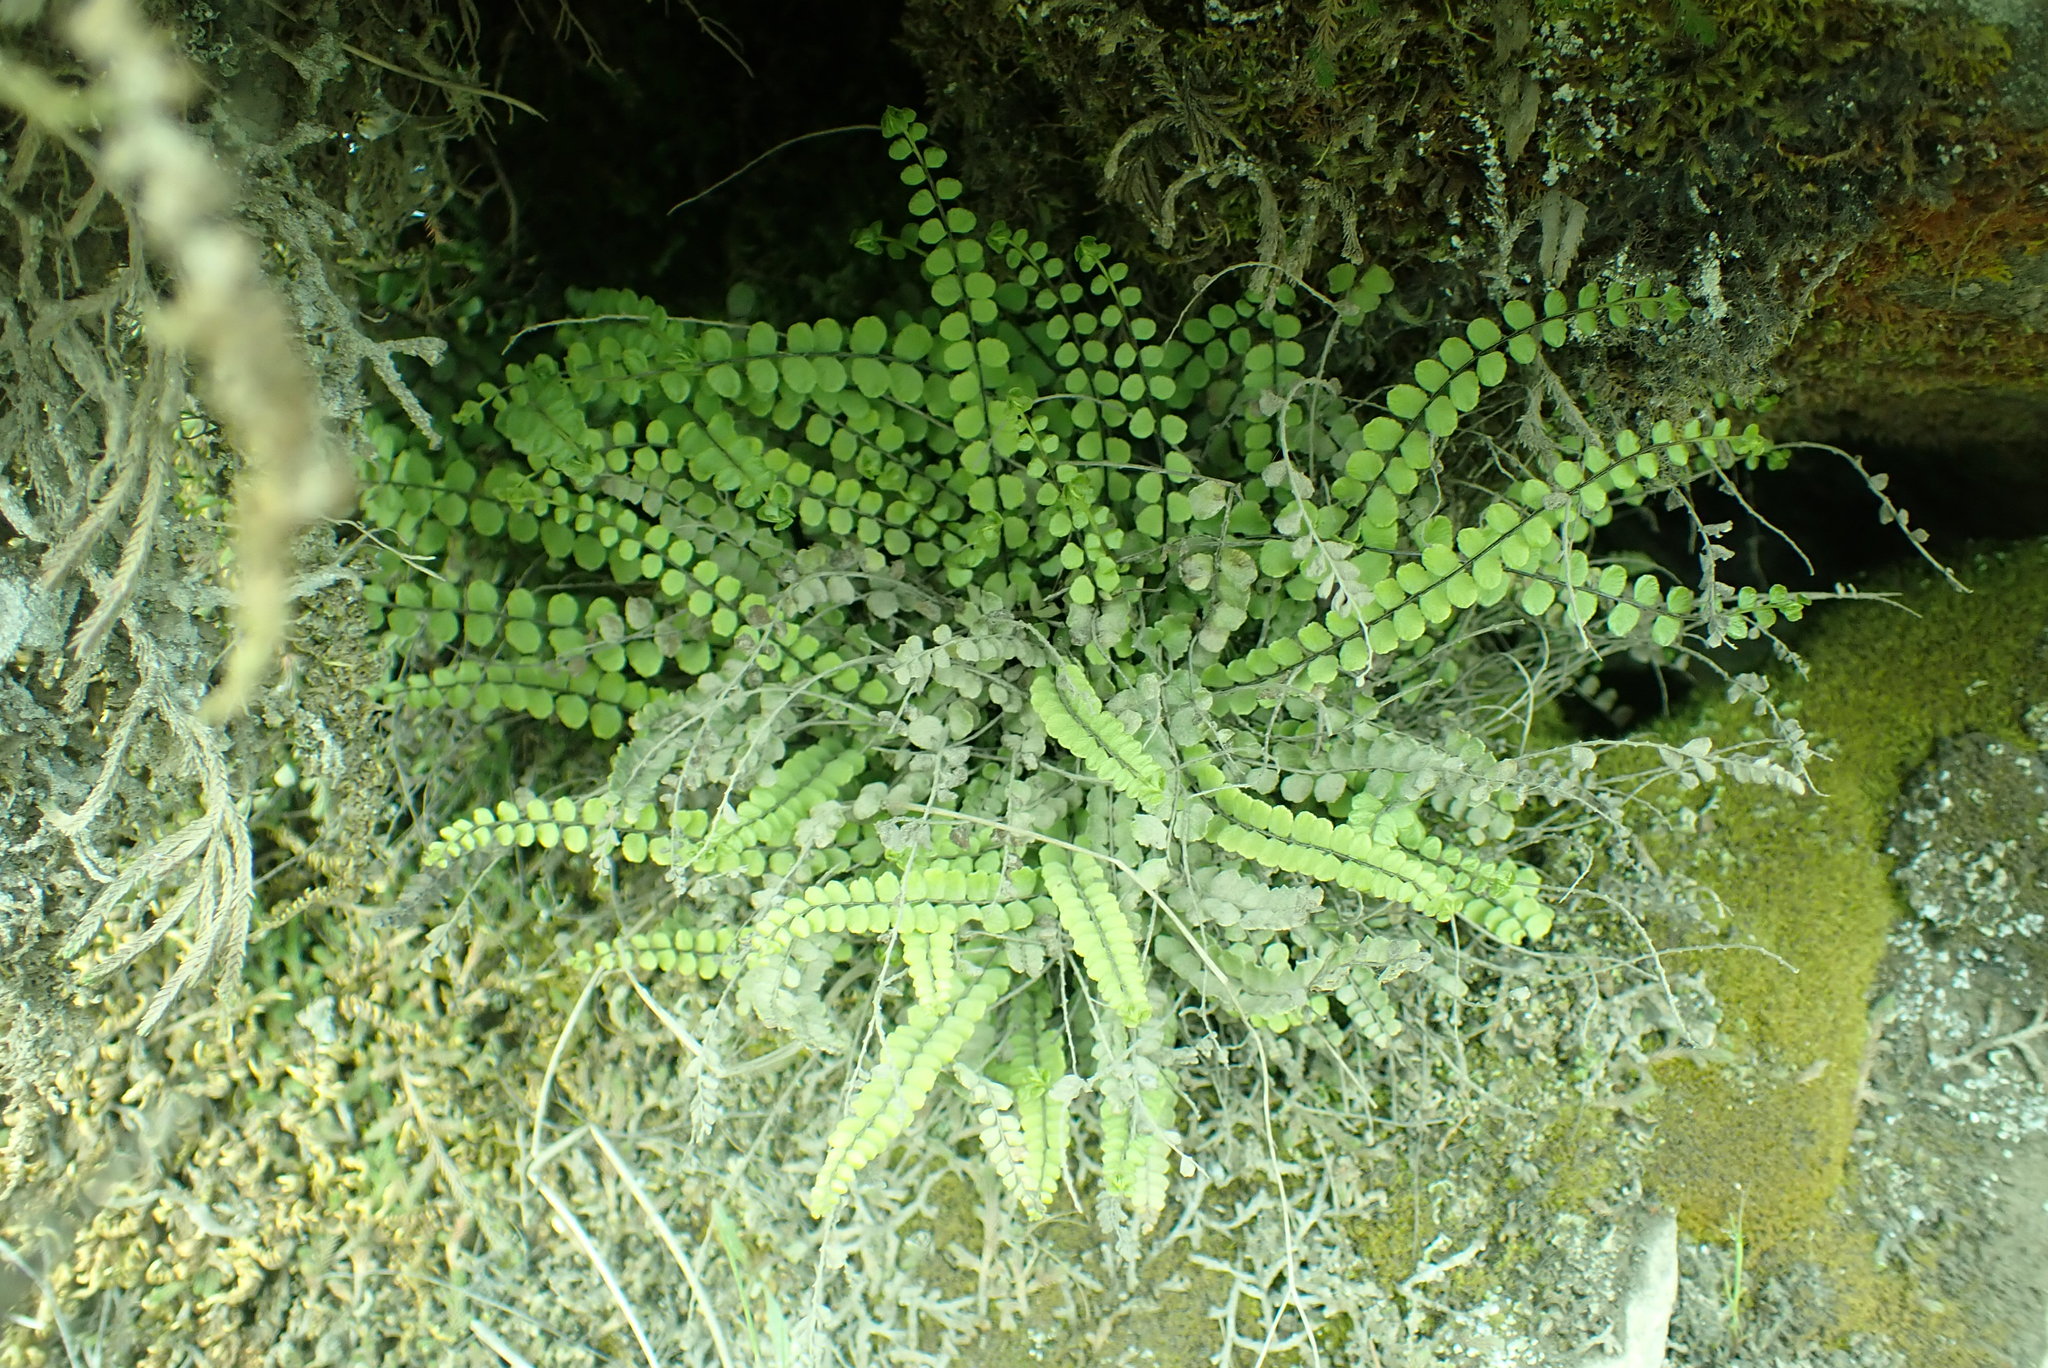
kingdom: Plantae
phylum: Tracheophyta
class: Polypodiopsida
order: Polypodiales
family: Aspleniaceae
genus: Asplenium
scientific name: Asplenium trichomanes
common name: Maidenhair spleenwort
